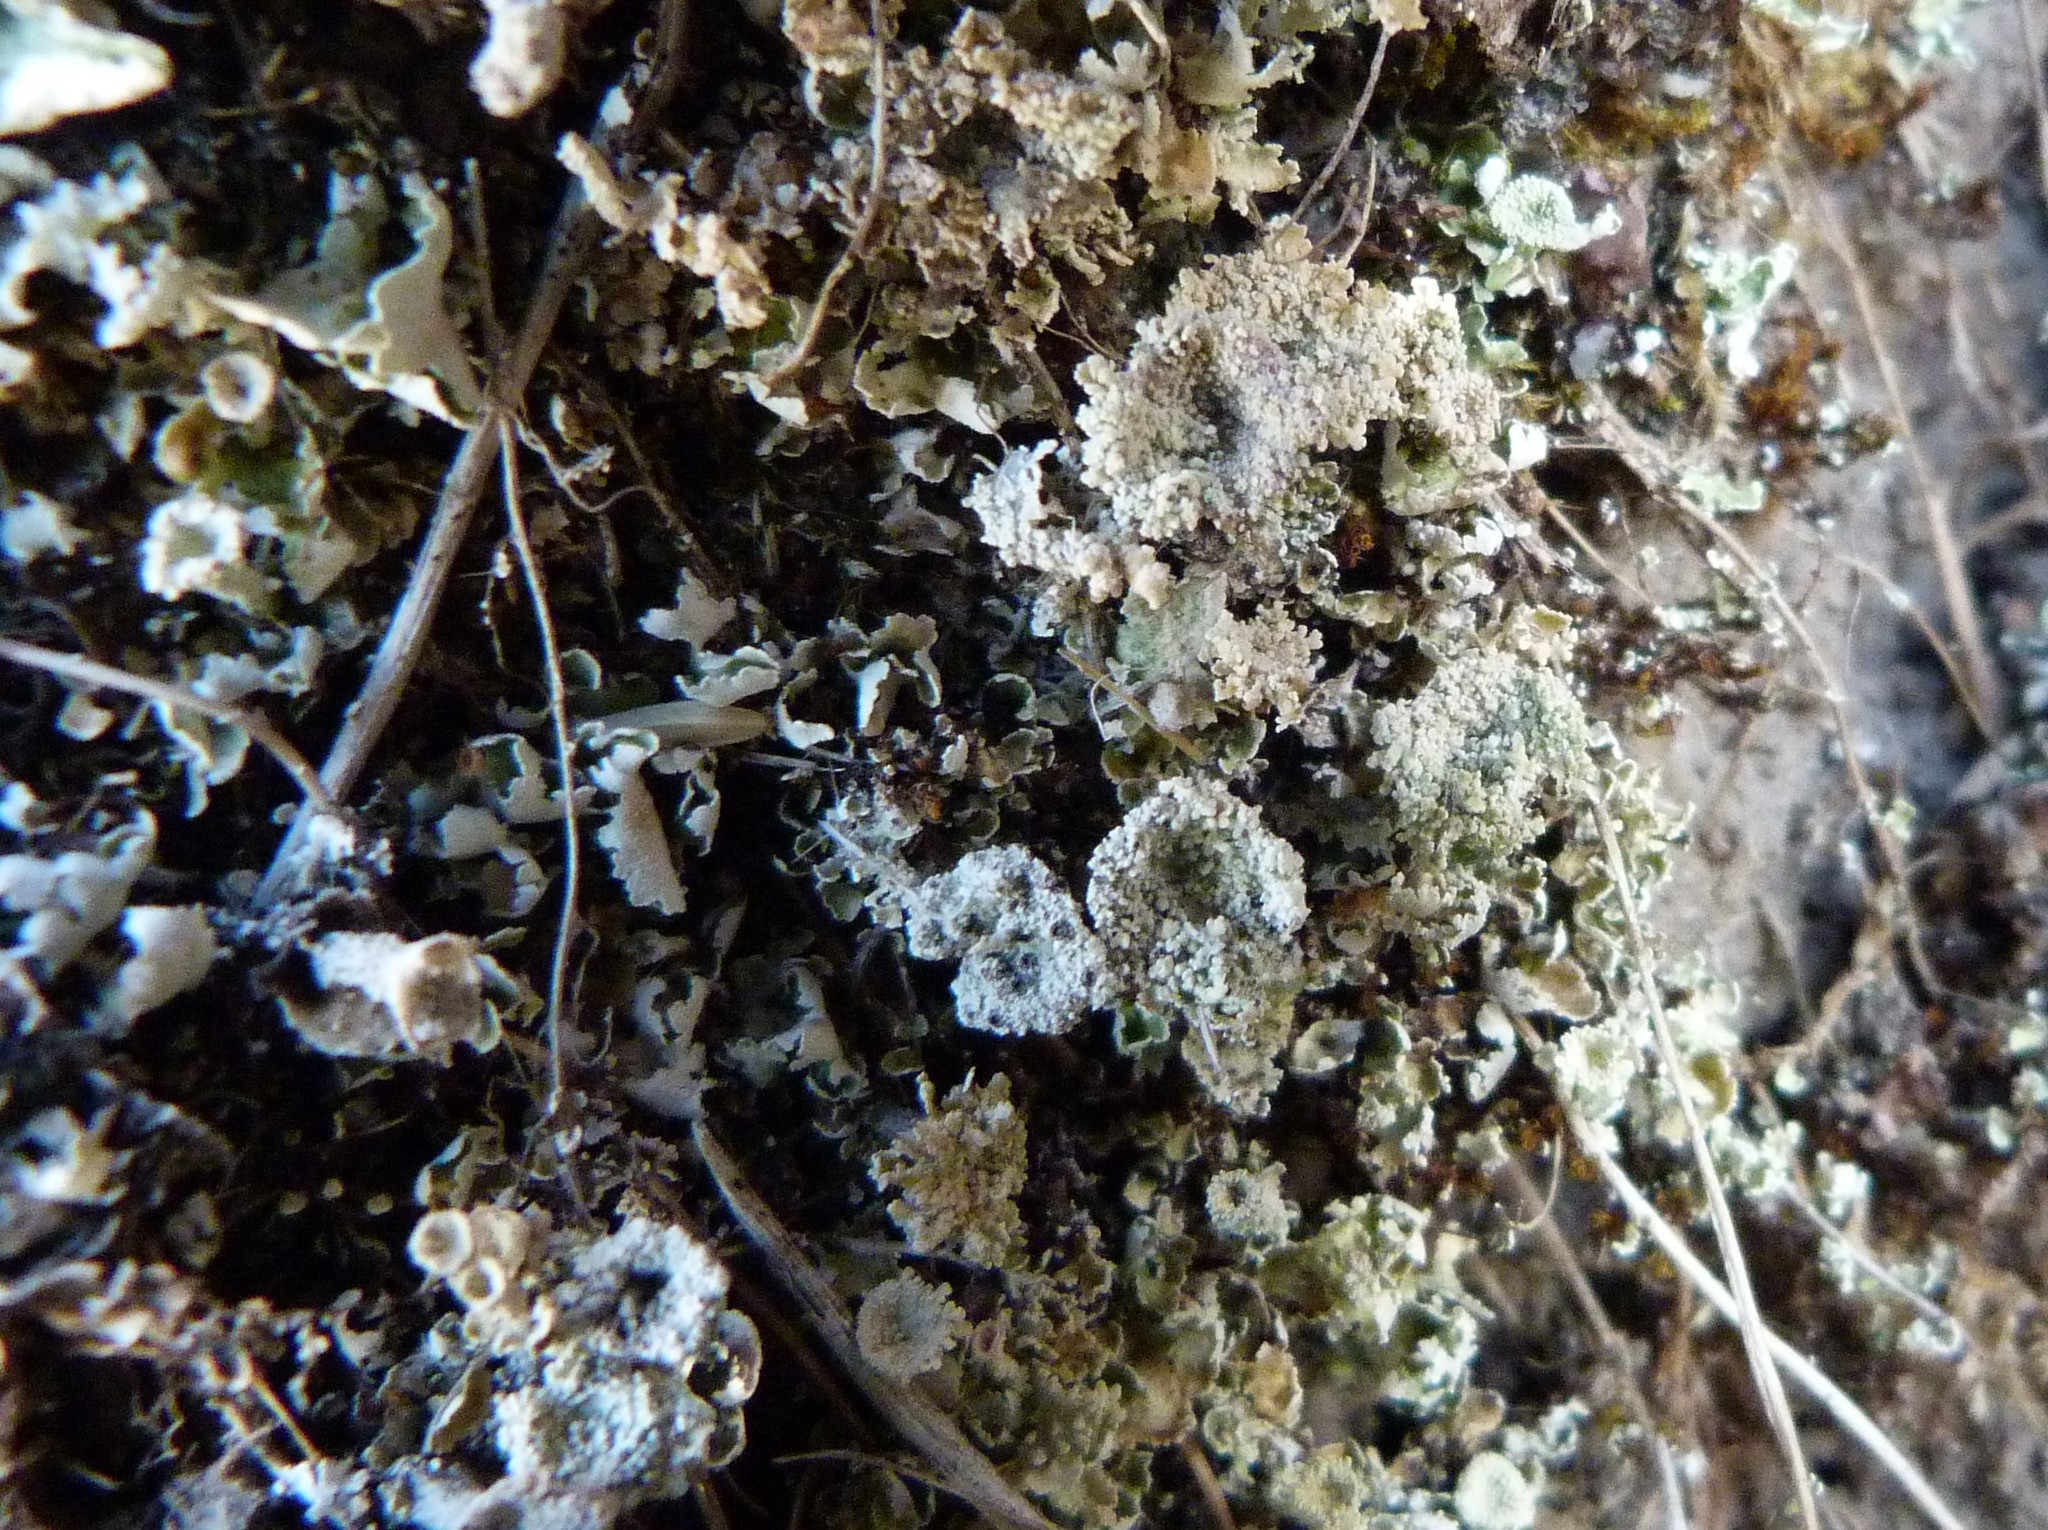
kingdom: Fungi
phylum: Ascomycota
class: Lecanoromycetes
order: Lecanorales
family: Cladoniaceae
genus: Cladonia
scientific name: Cladonia pyxidata
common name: Pebbled pixie cup
